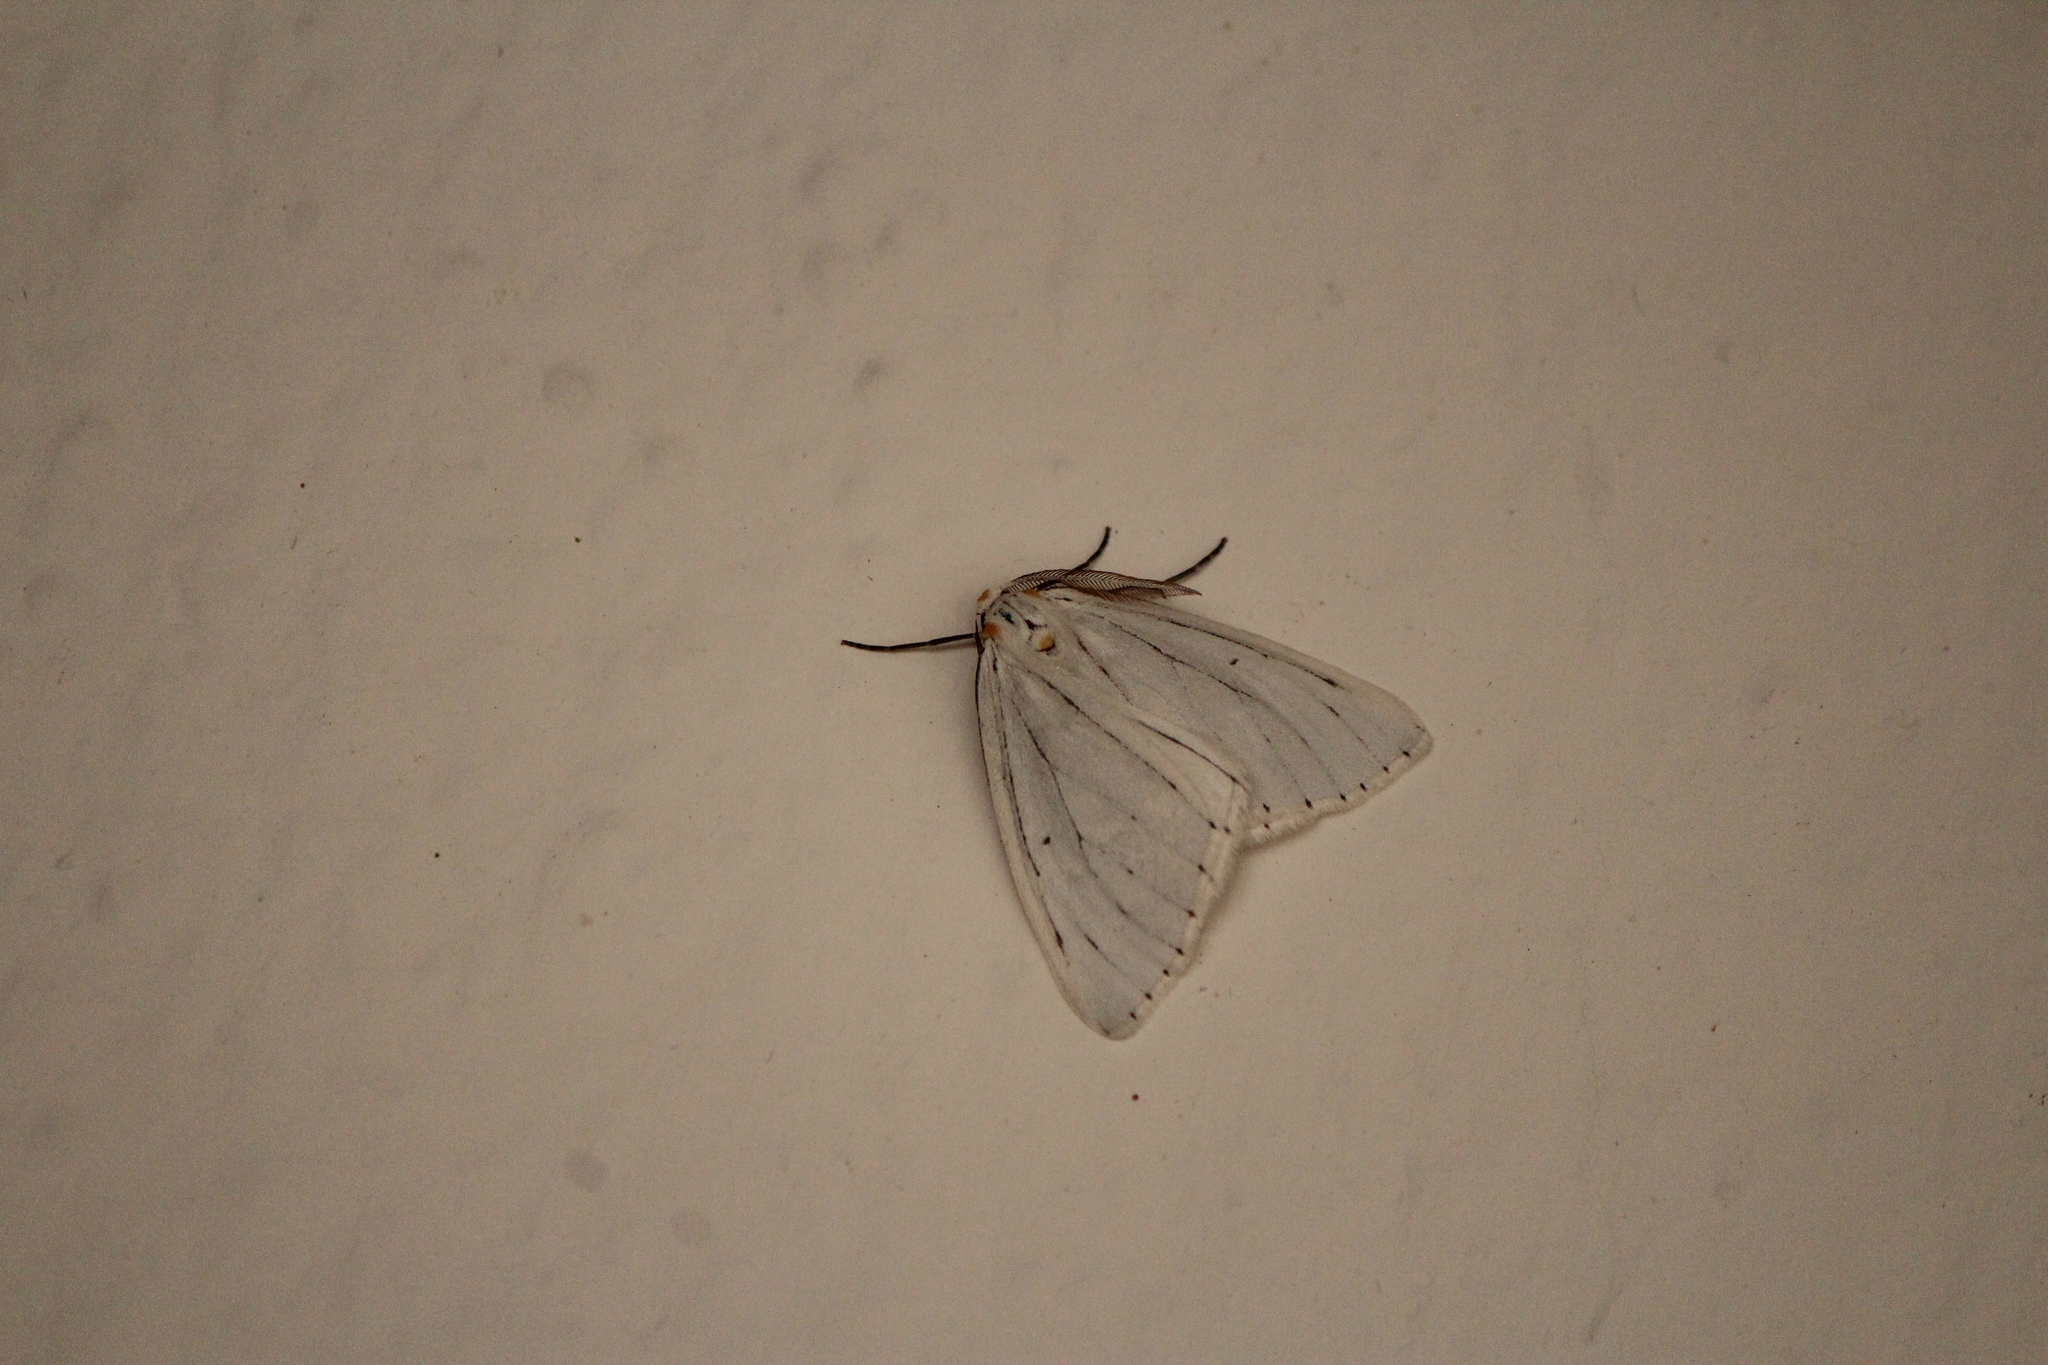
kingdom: Animalia
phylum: Arthropoda
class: Insecta
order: Lepidoptera
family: Geometridae
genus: Neuromelia
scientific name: Neuromelia selectata
